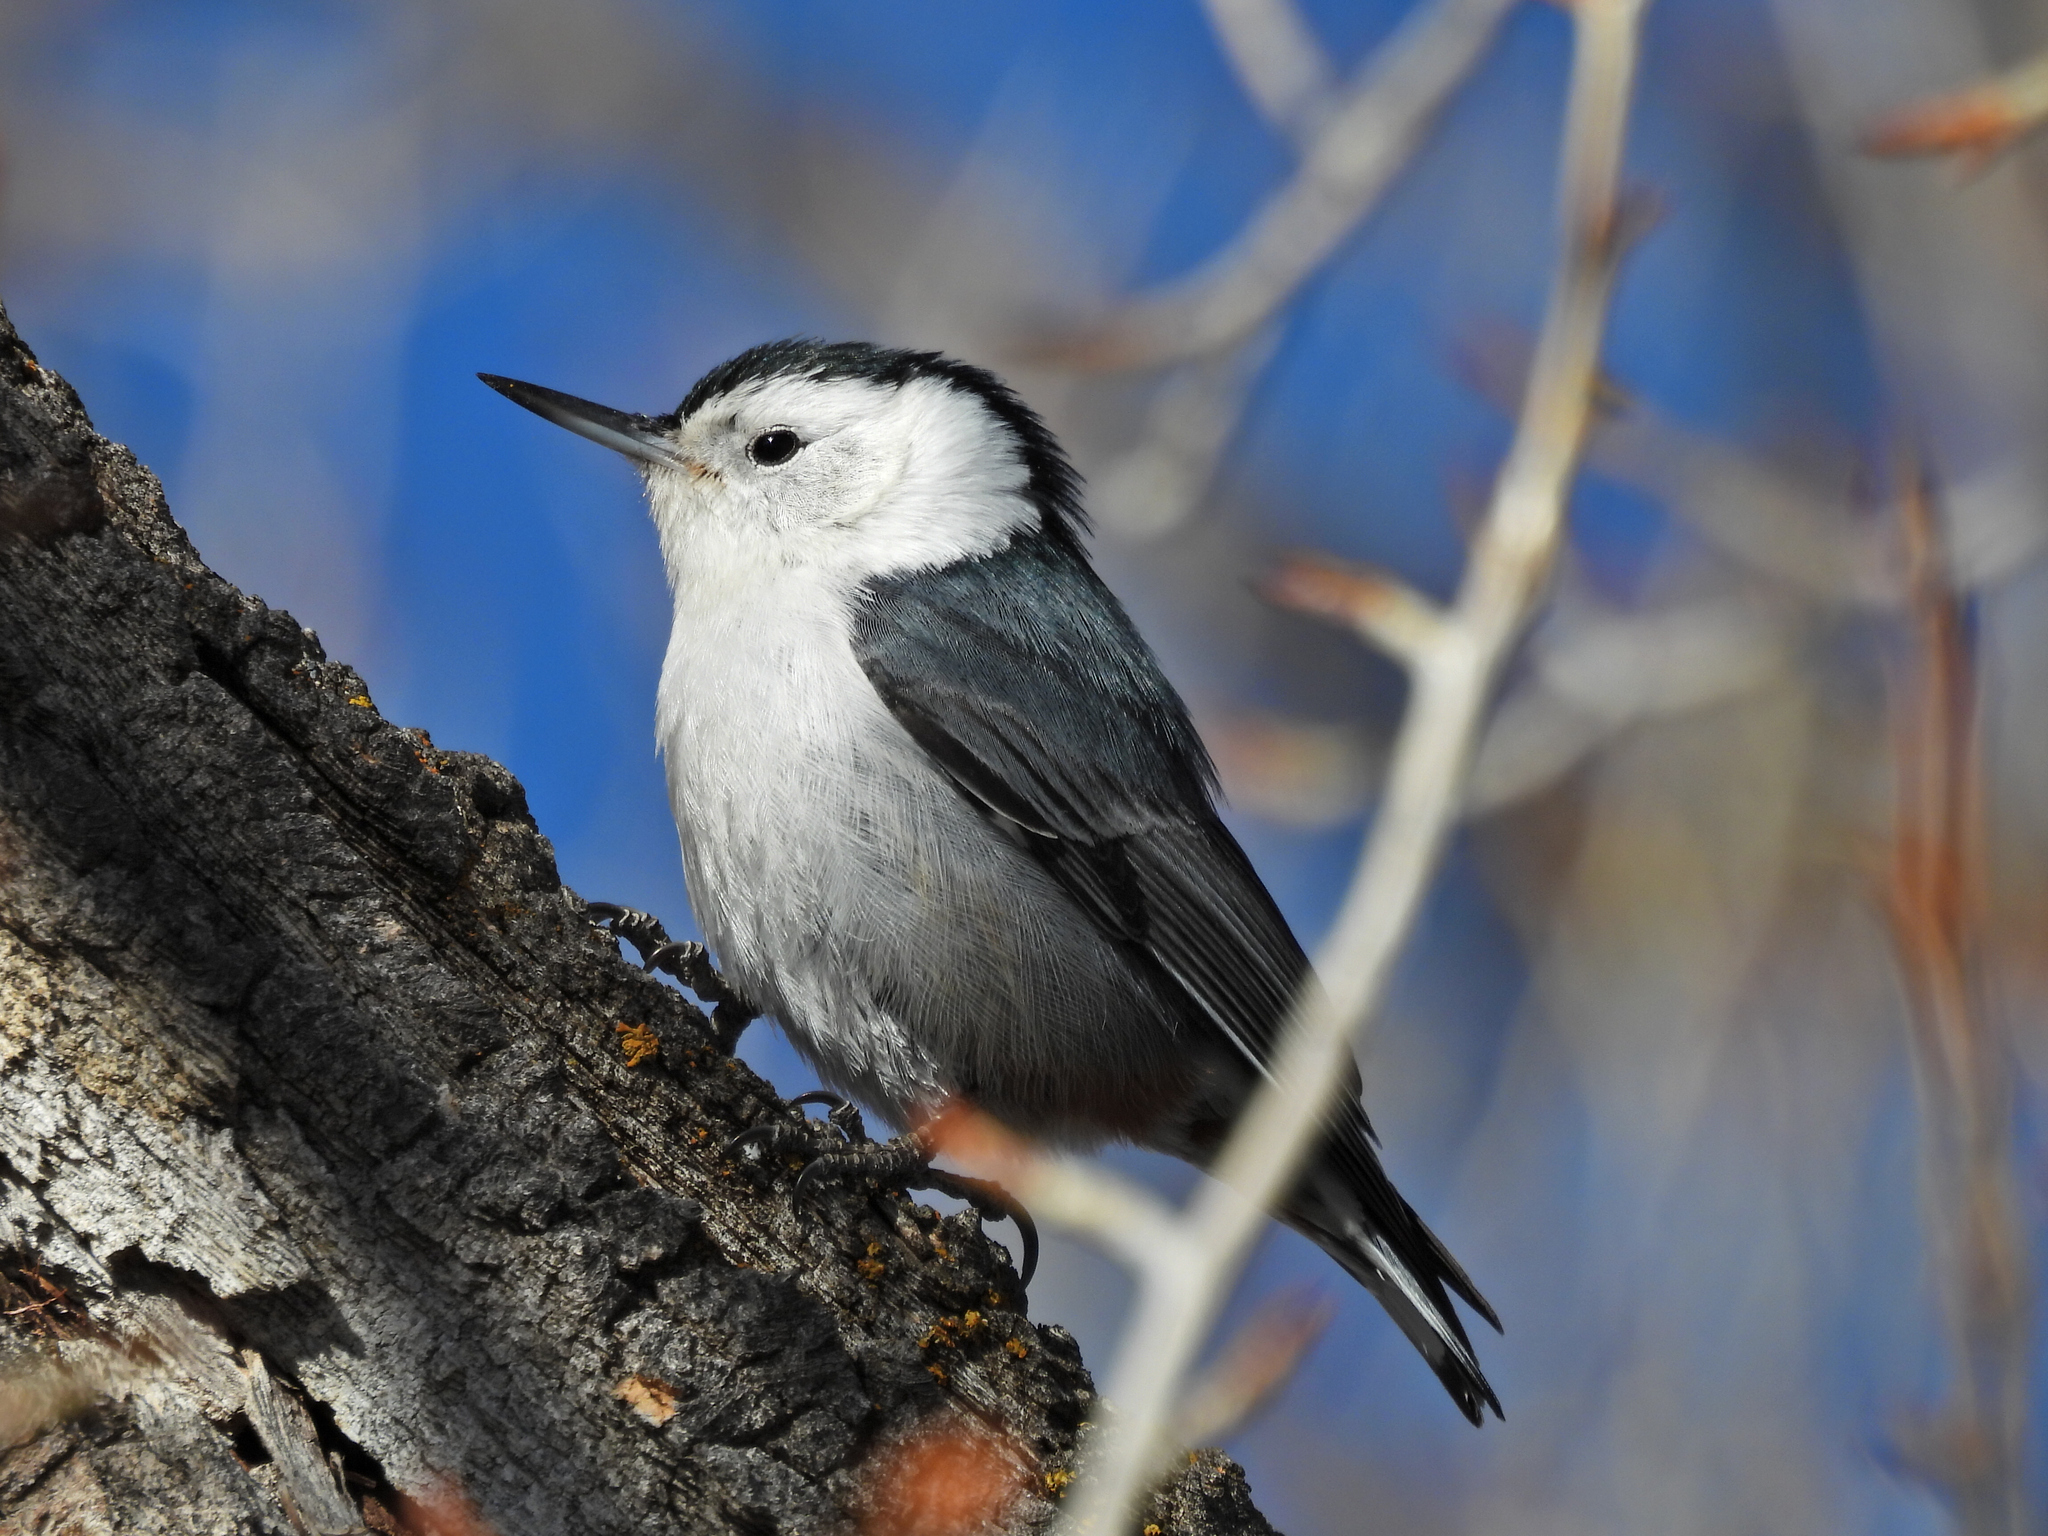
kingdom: Animalia
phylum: Chordata
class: Aves
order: Passeriformes
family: Sittidae
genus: Sitta
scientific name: Sitta carolinensis
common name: White-breasted nuthatch
